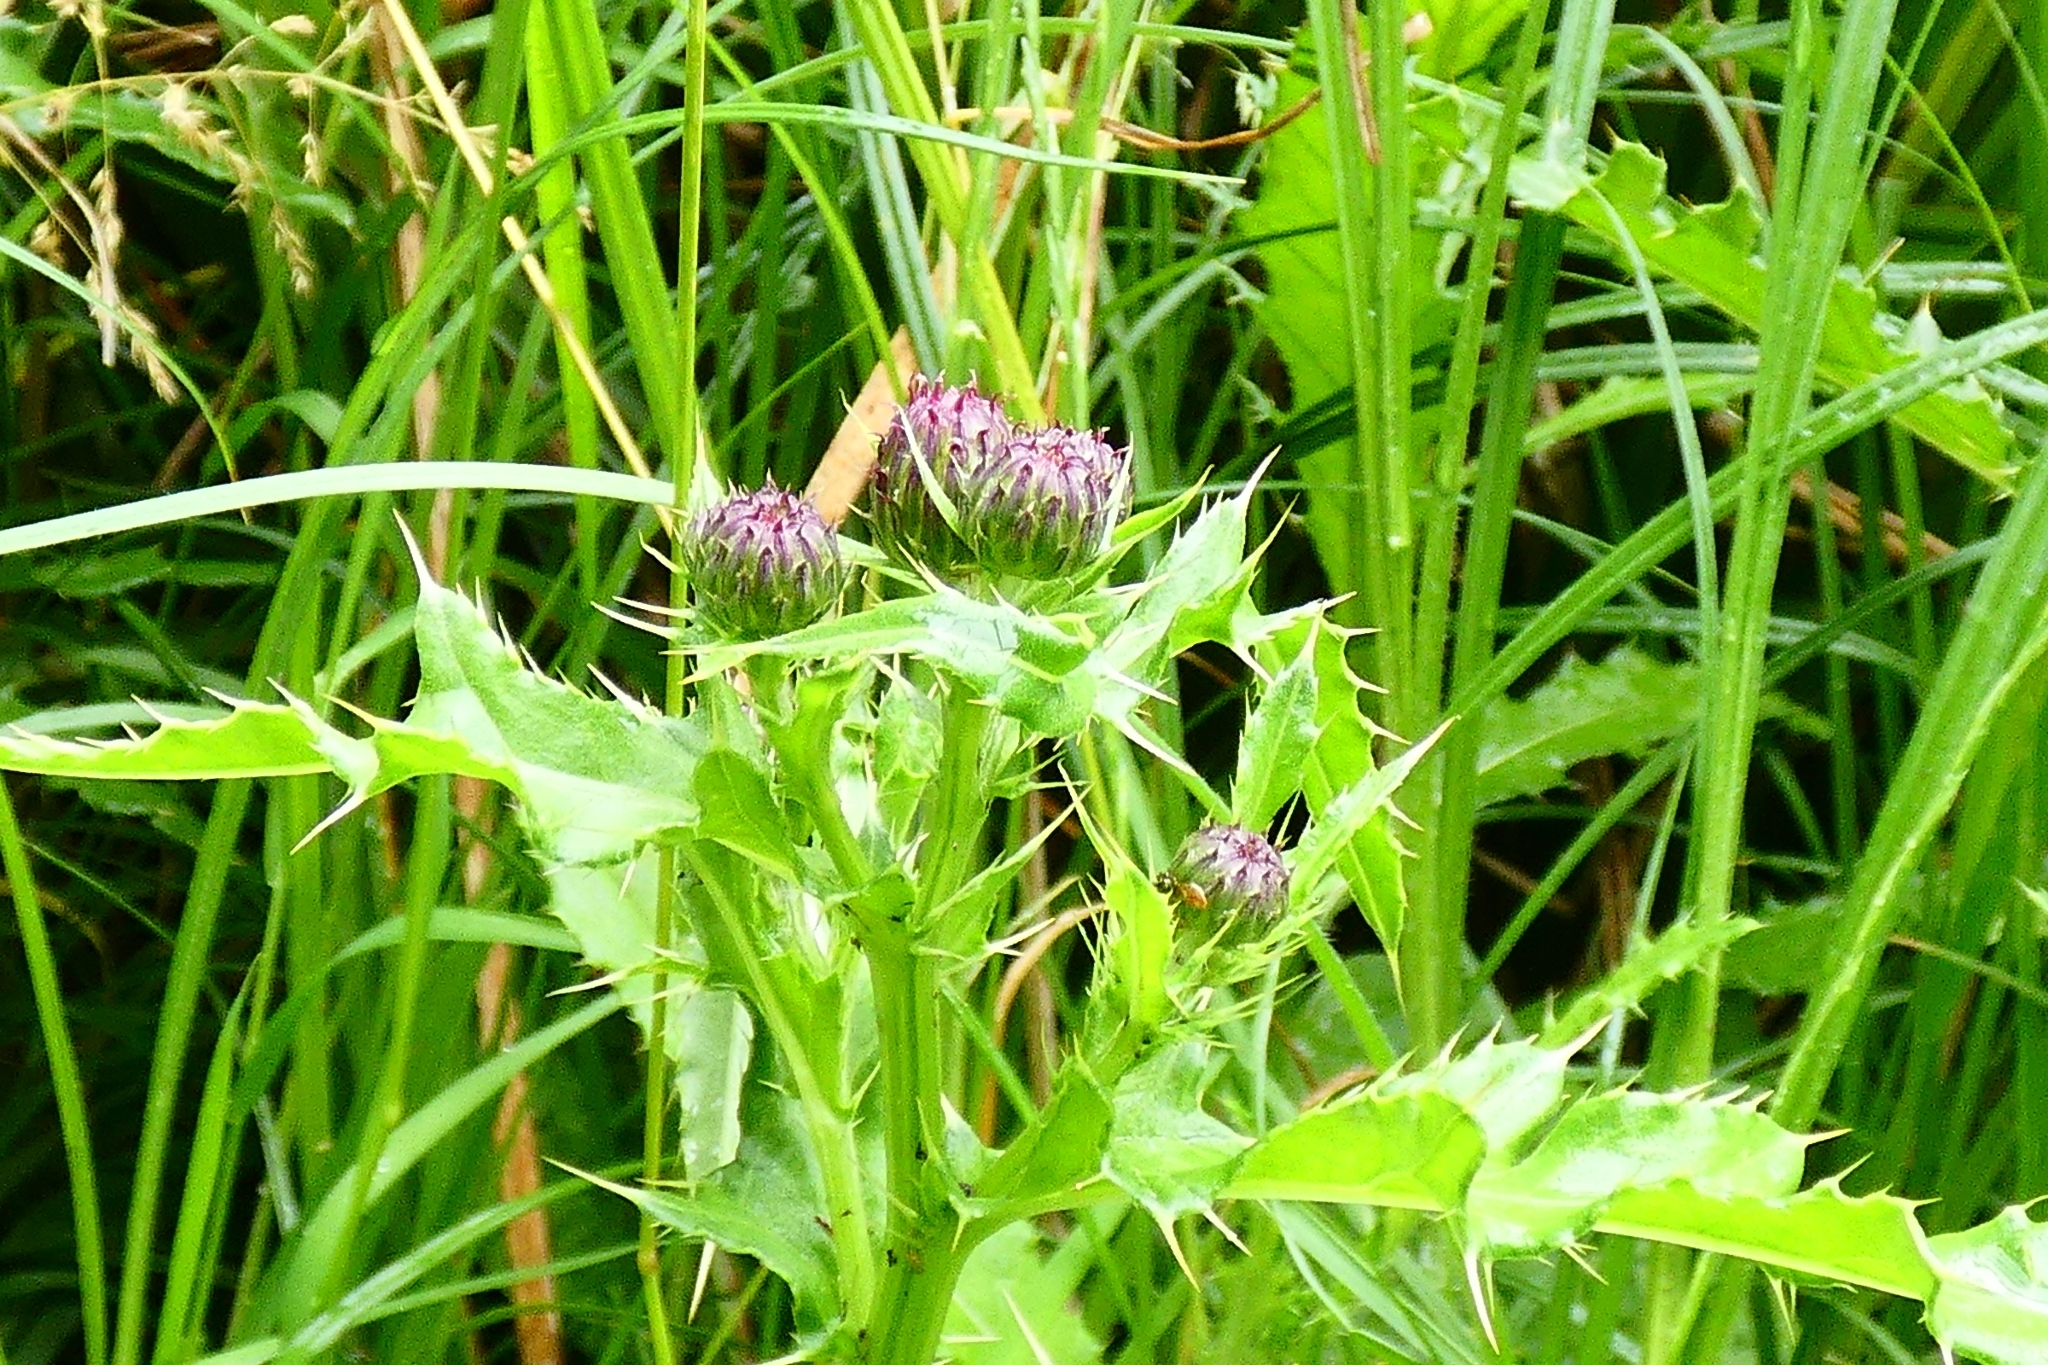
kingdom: Plantae
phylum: Tracheophyta
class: Magnoliopsida
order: Asterales
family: Asteraceae
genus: Cirsium
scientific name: Cirsium arvense
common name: Creeping thistle
